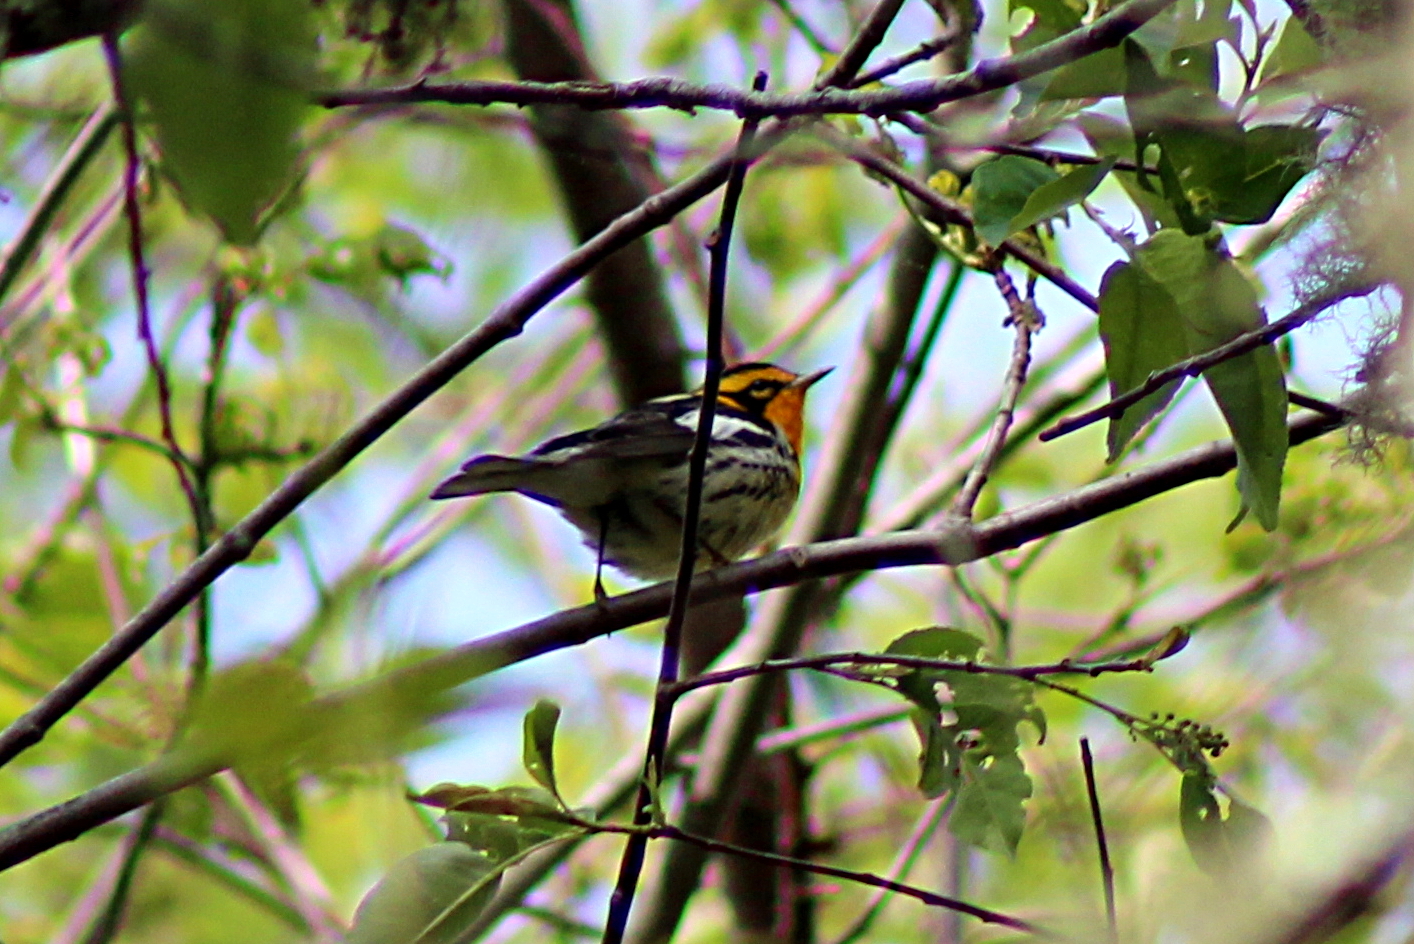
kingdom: Animalia
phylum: Chordata
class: Aves
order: Passeriformes
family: Parulidae
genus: Setophaga
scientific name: Setophaga fusca
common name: Blackburnian warbler
